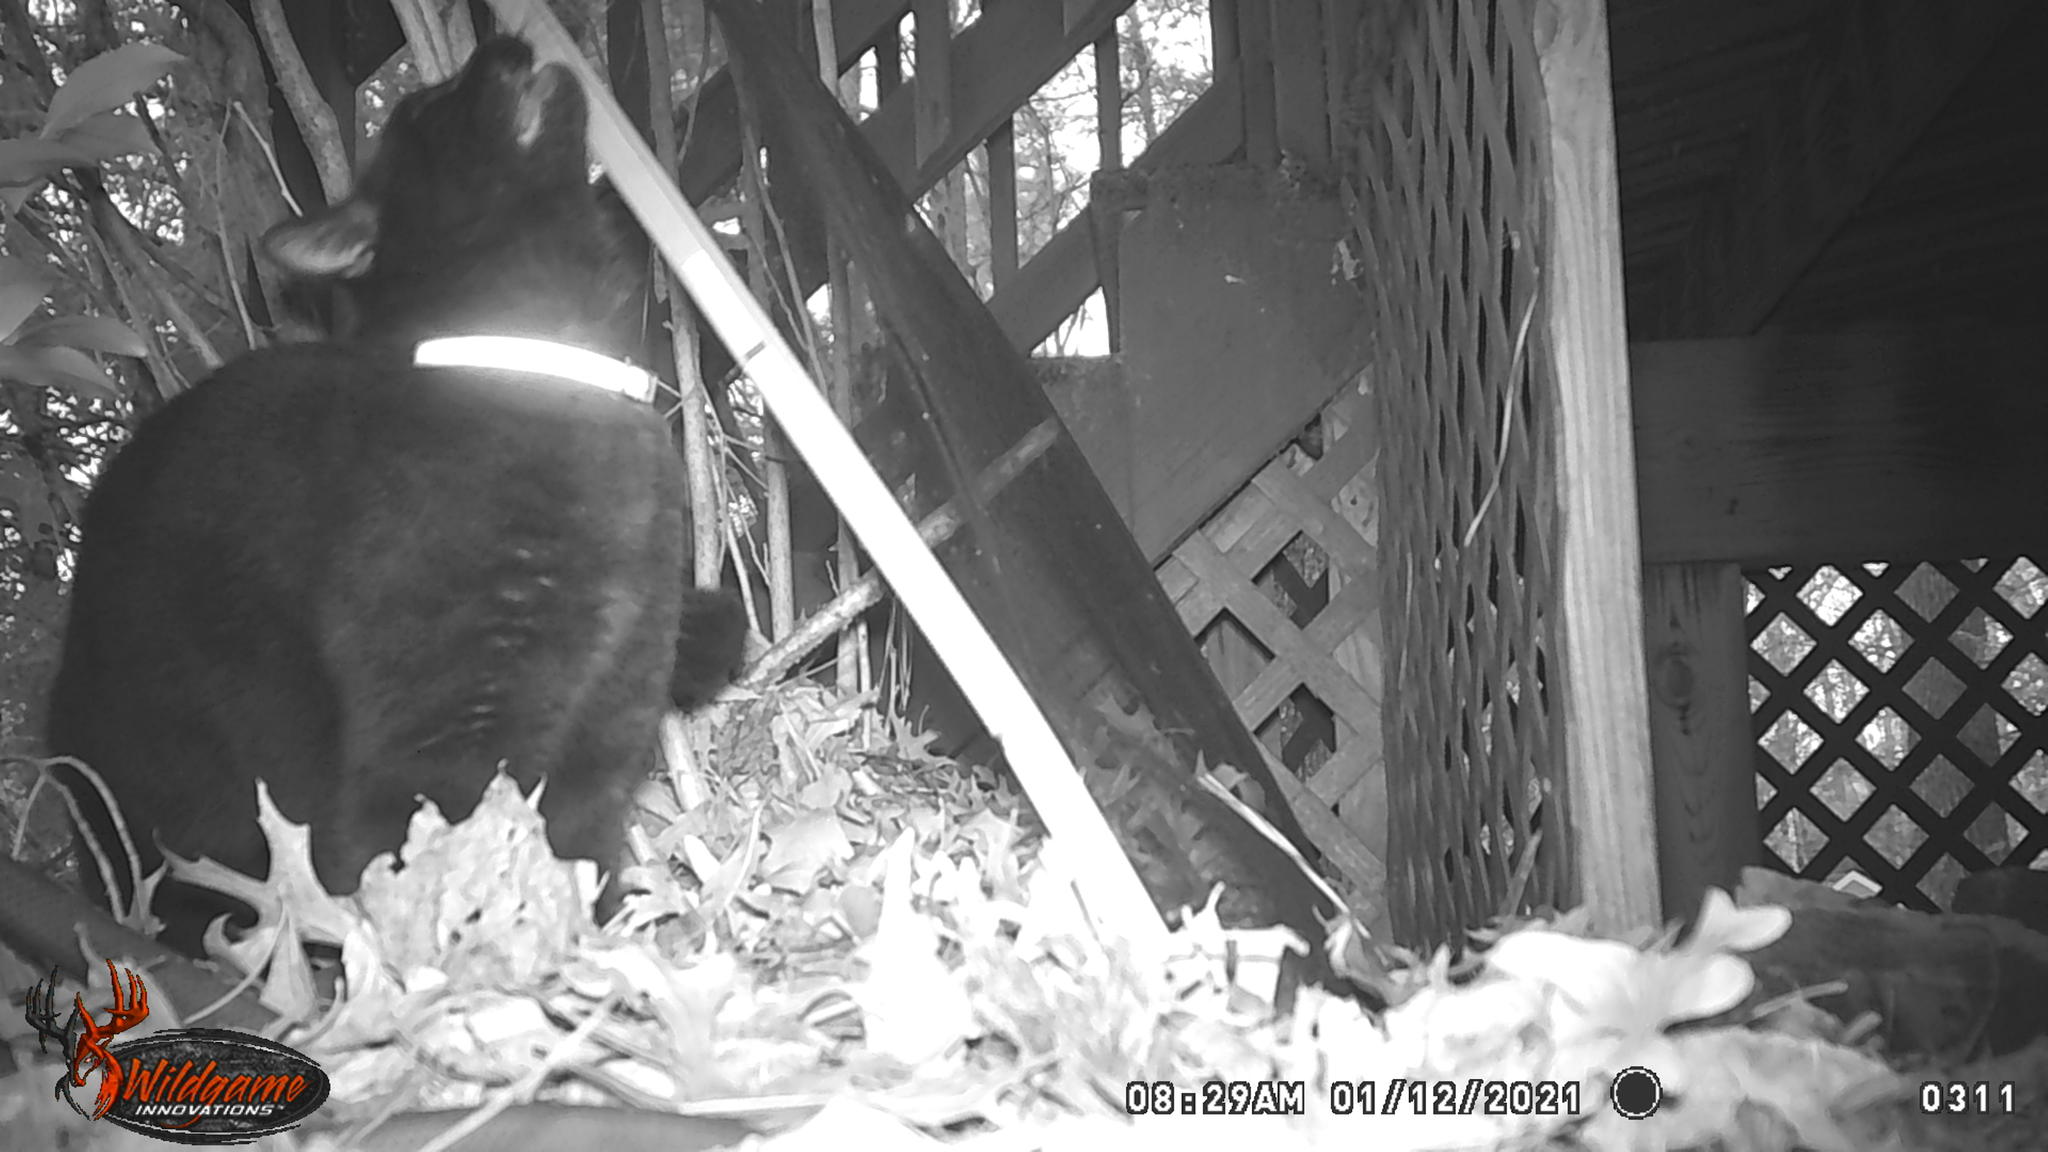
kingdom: Animalia
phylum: Chordata
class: Mammalia
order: Carnivora
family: Felidae
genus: Felis
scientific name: Felis catus
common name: Domestic cat
